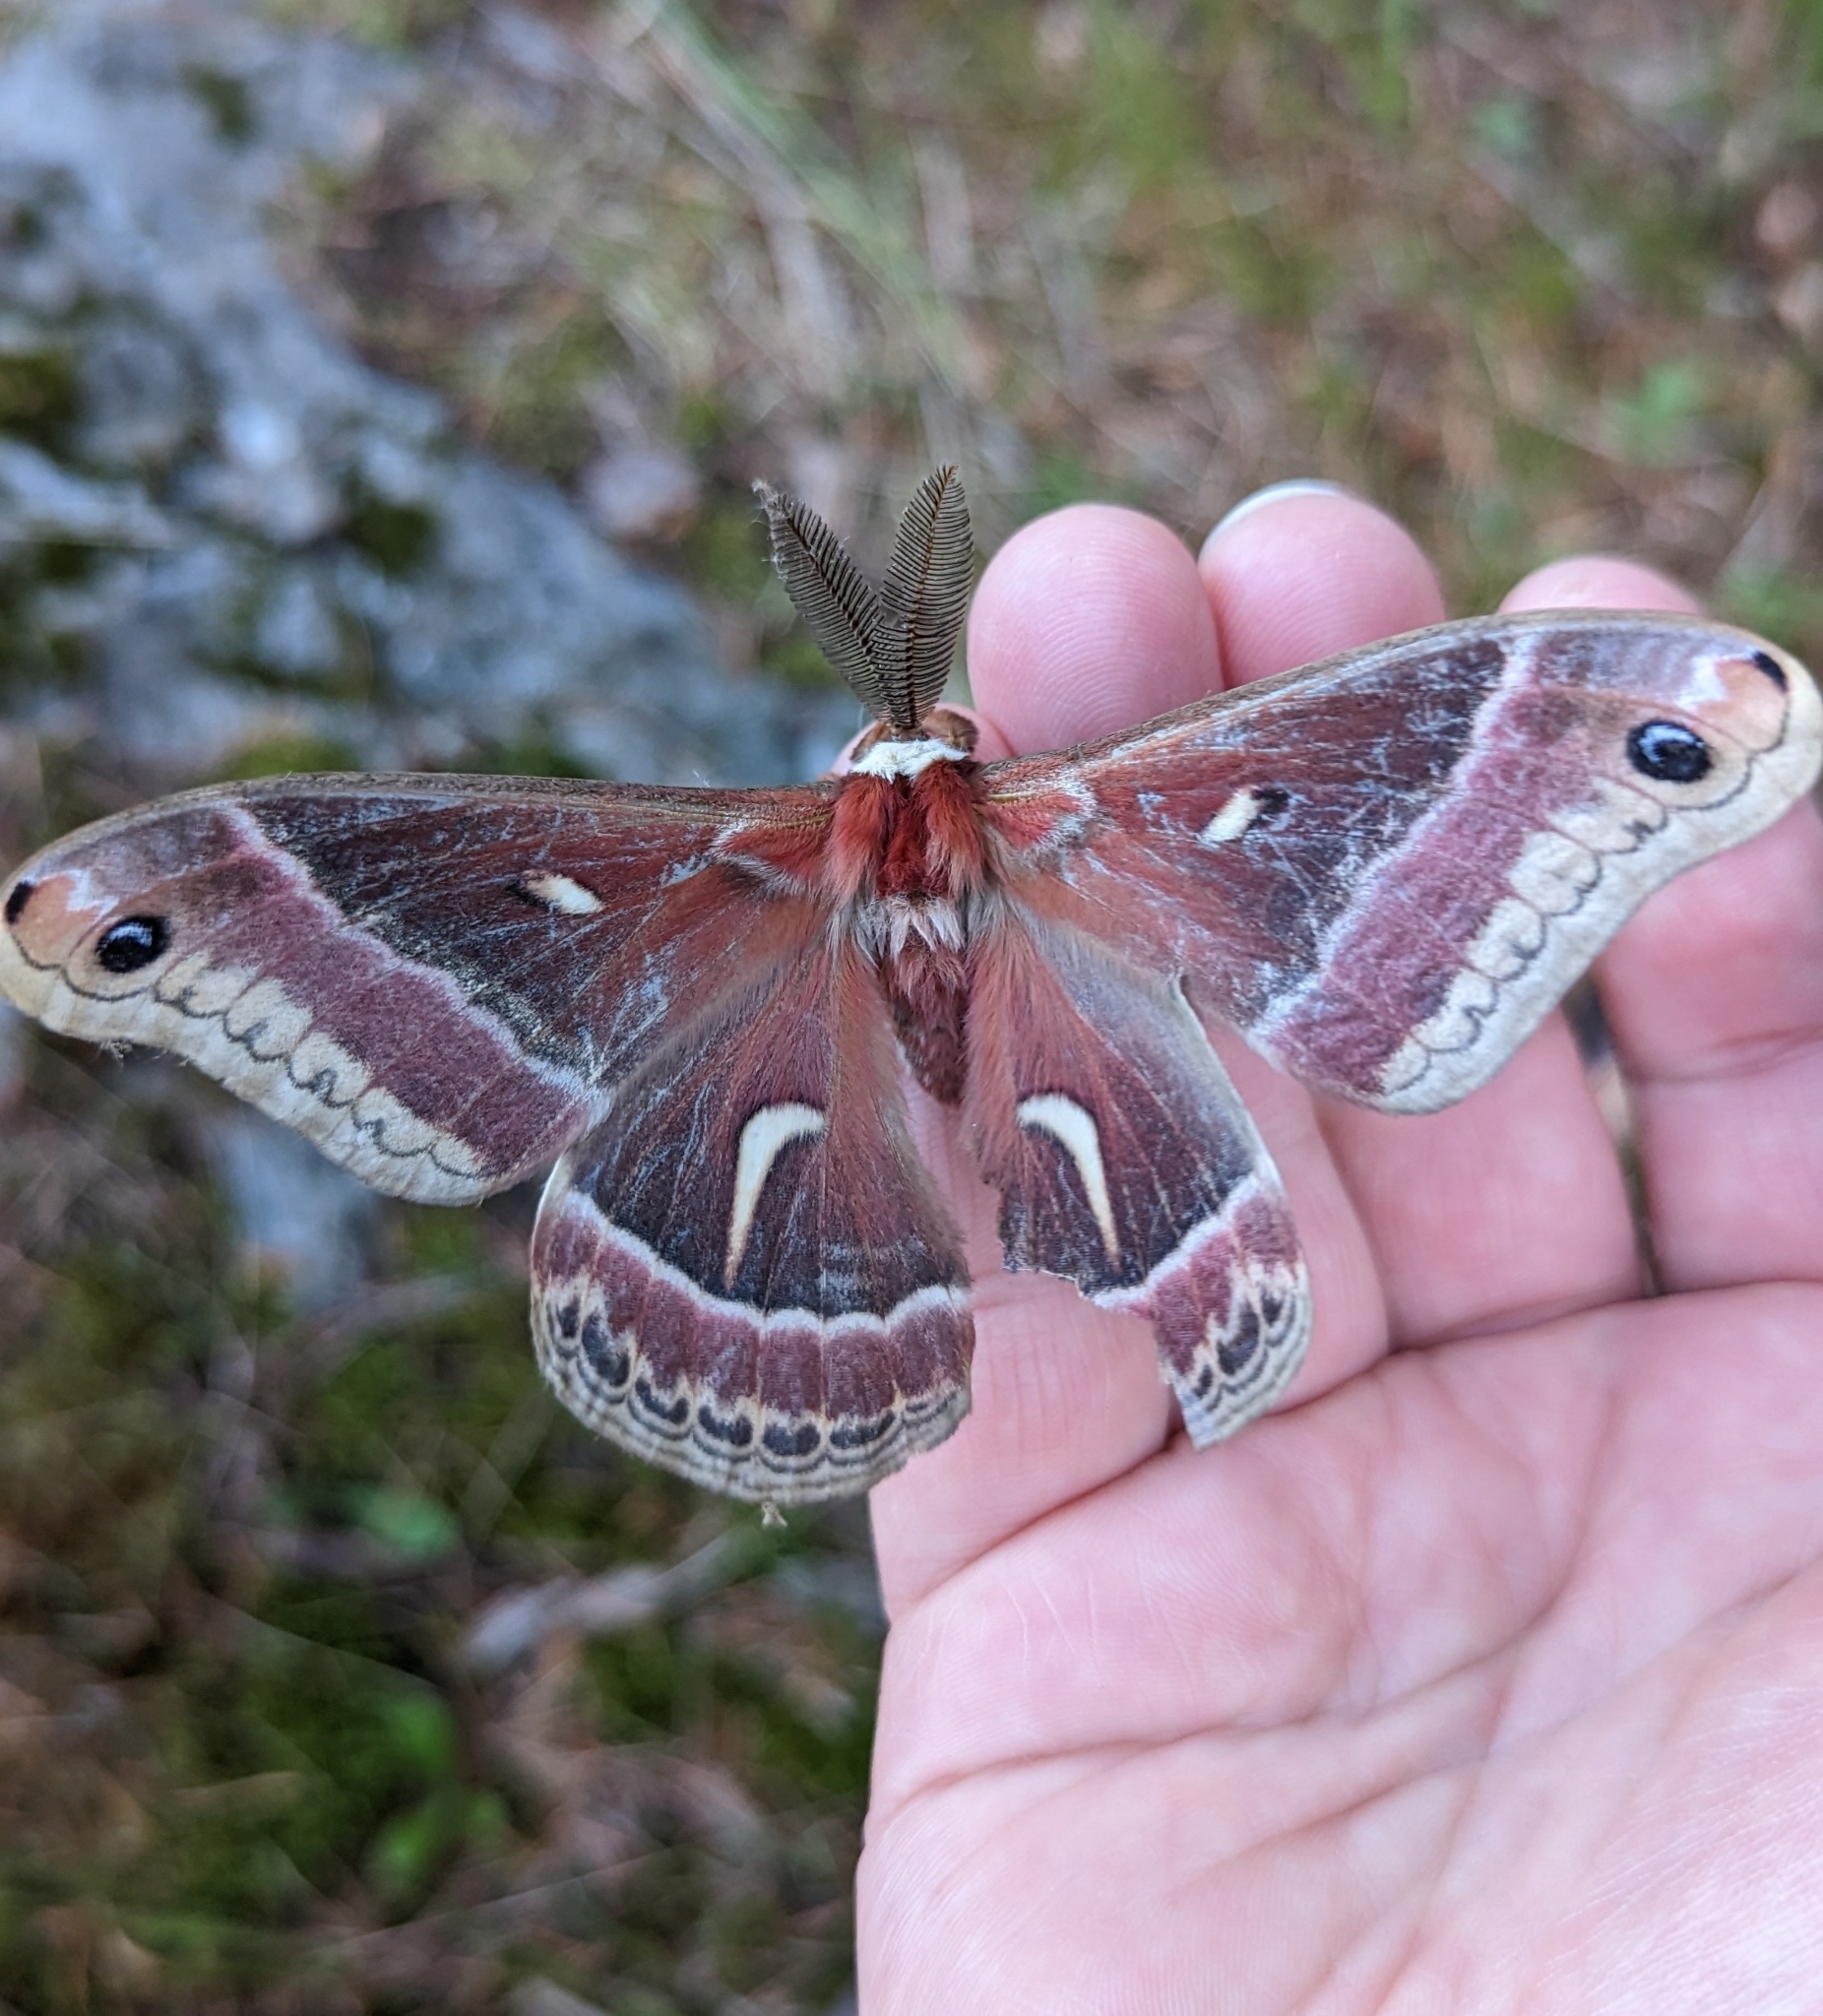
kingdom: Animalia
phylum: Arthropoda
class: Insecta
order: Lepidoptera
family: Saturniidae
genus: Hyalophora
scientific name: Hyalophora euryalus
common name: Ceanothus silkmoth
